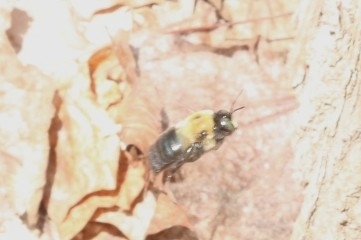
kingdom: Animalia
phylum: Arthropoda
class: Insecta
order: Hymenoptera
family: Apidae
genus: Xylocopa
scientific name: Xylocopa virginica
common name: Carpenter bee
